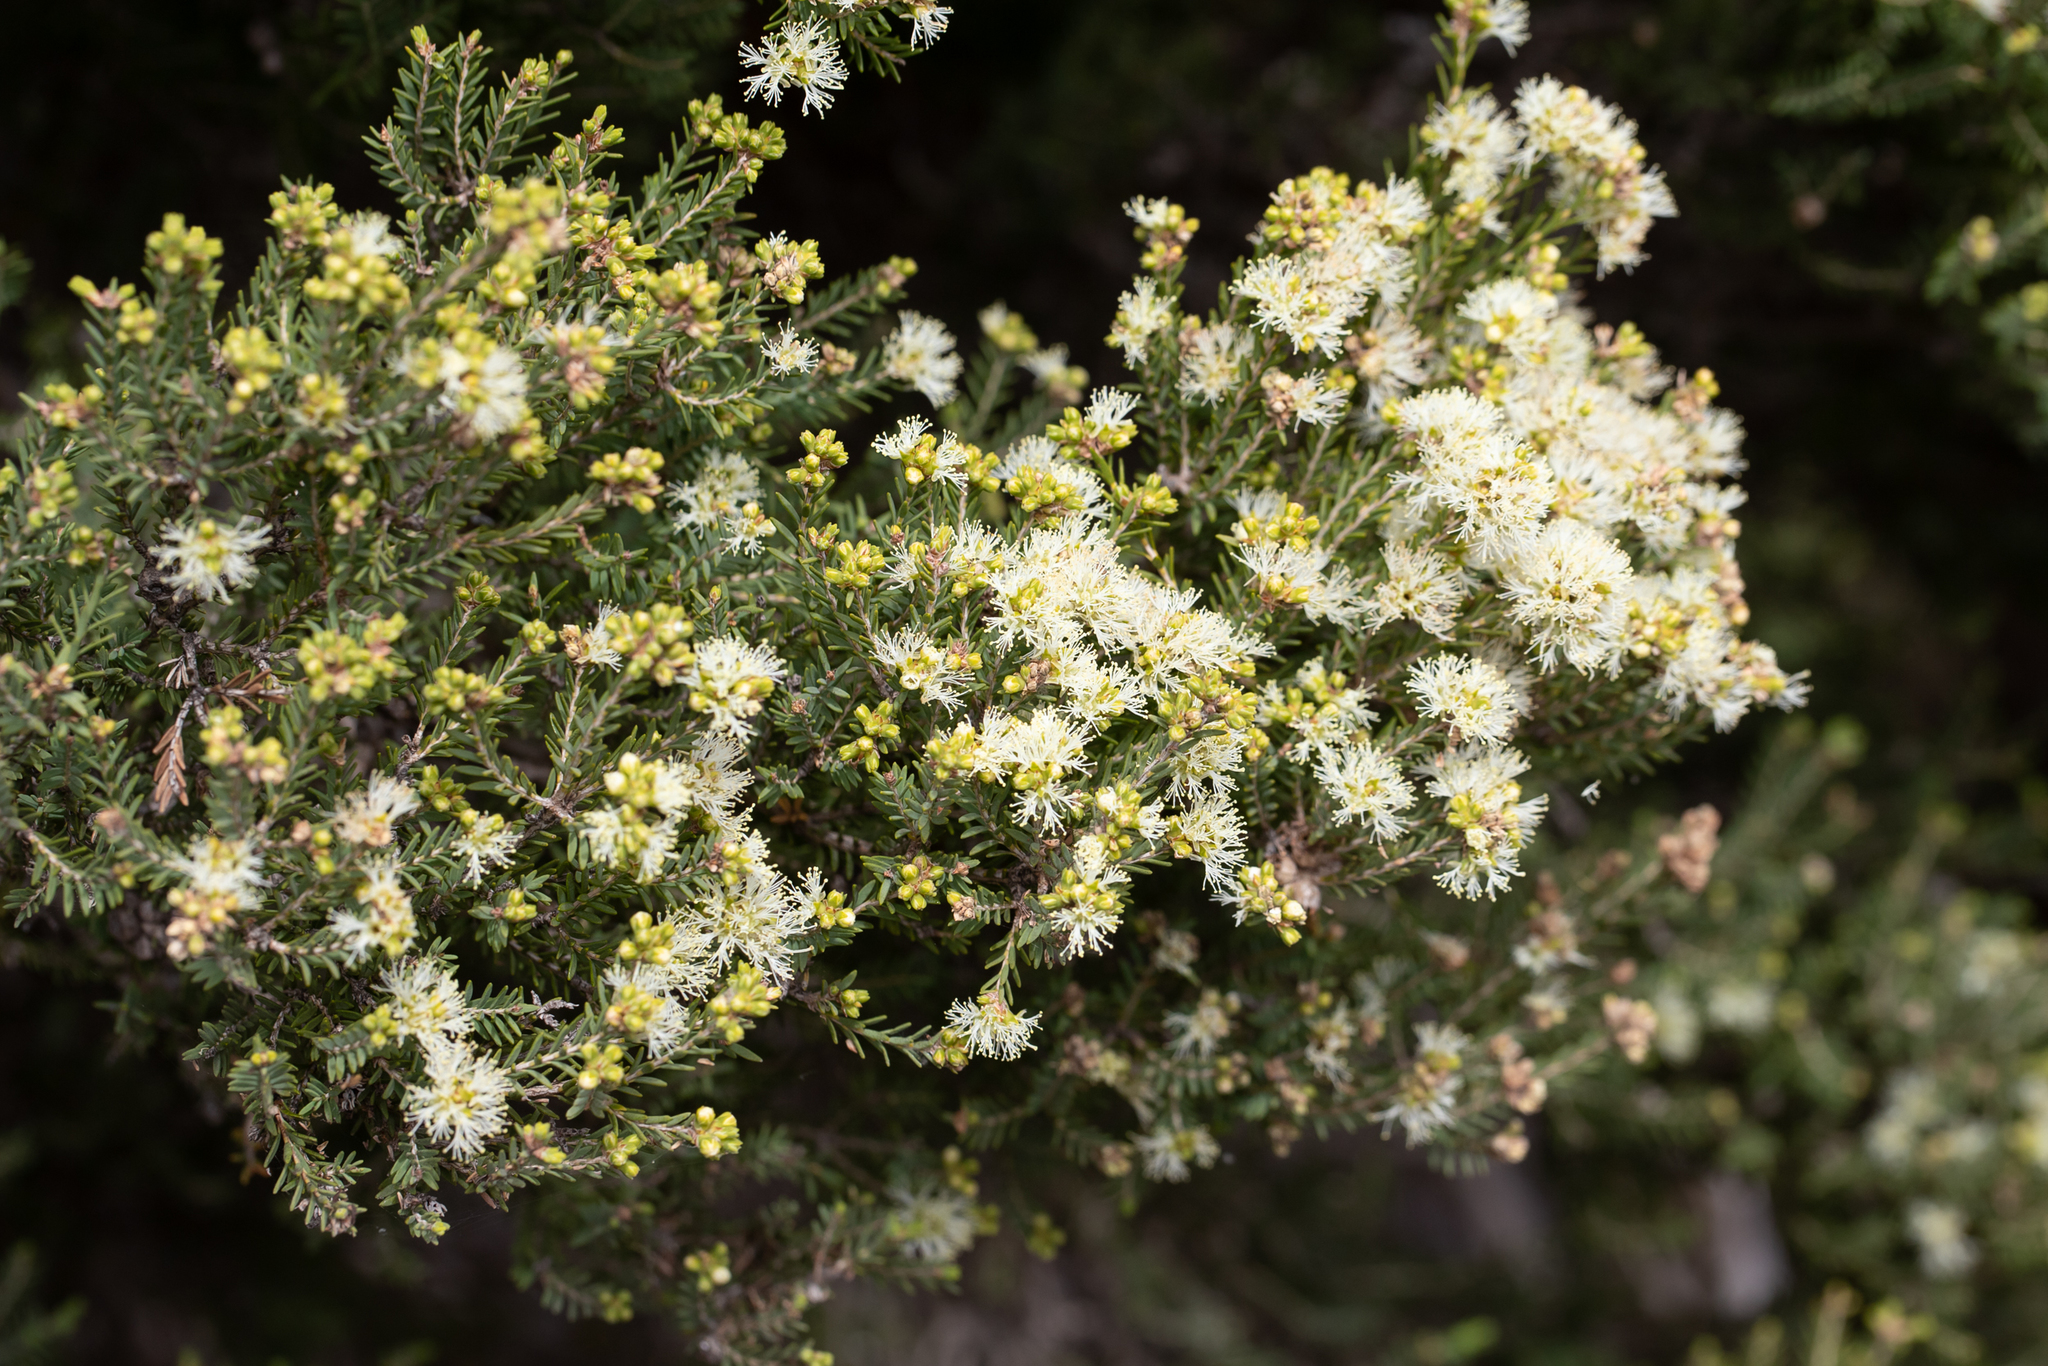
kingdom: Plantae
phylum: Tracheophyta
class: Magnoliopsida
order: Myrtales
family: Myrtaceae
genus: Melaleuca
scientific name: Melaleuca halmaturorum
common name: Coastal paper-bark
